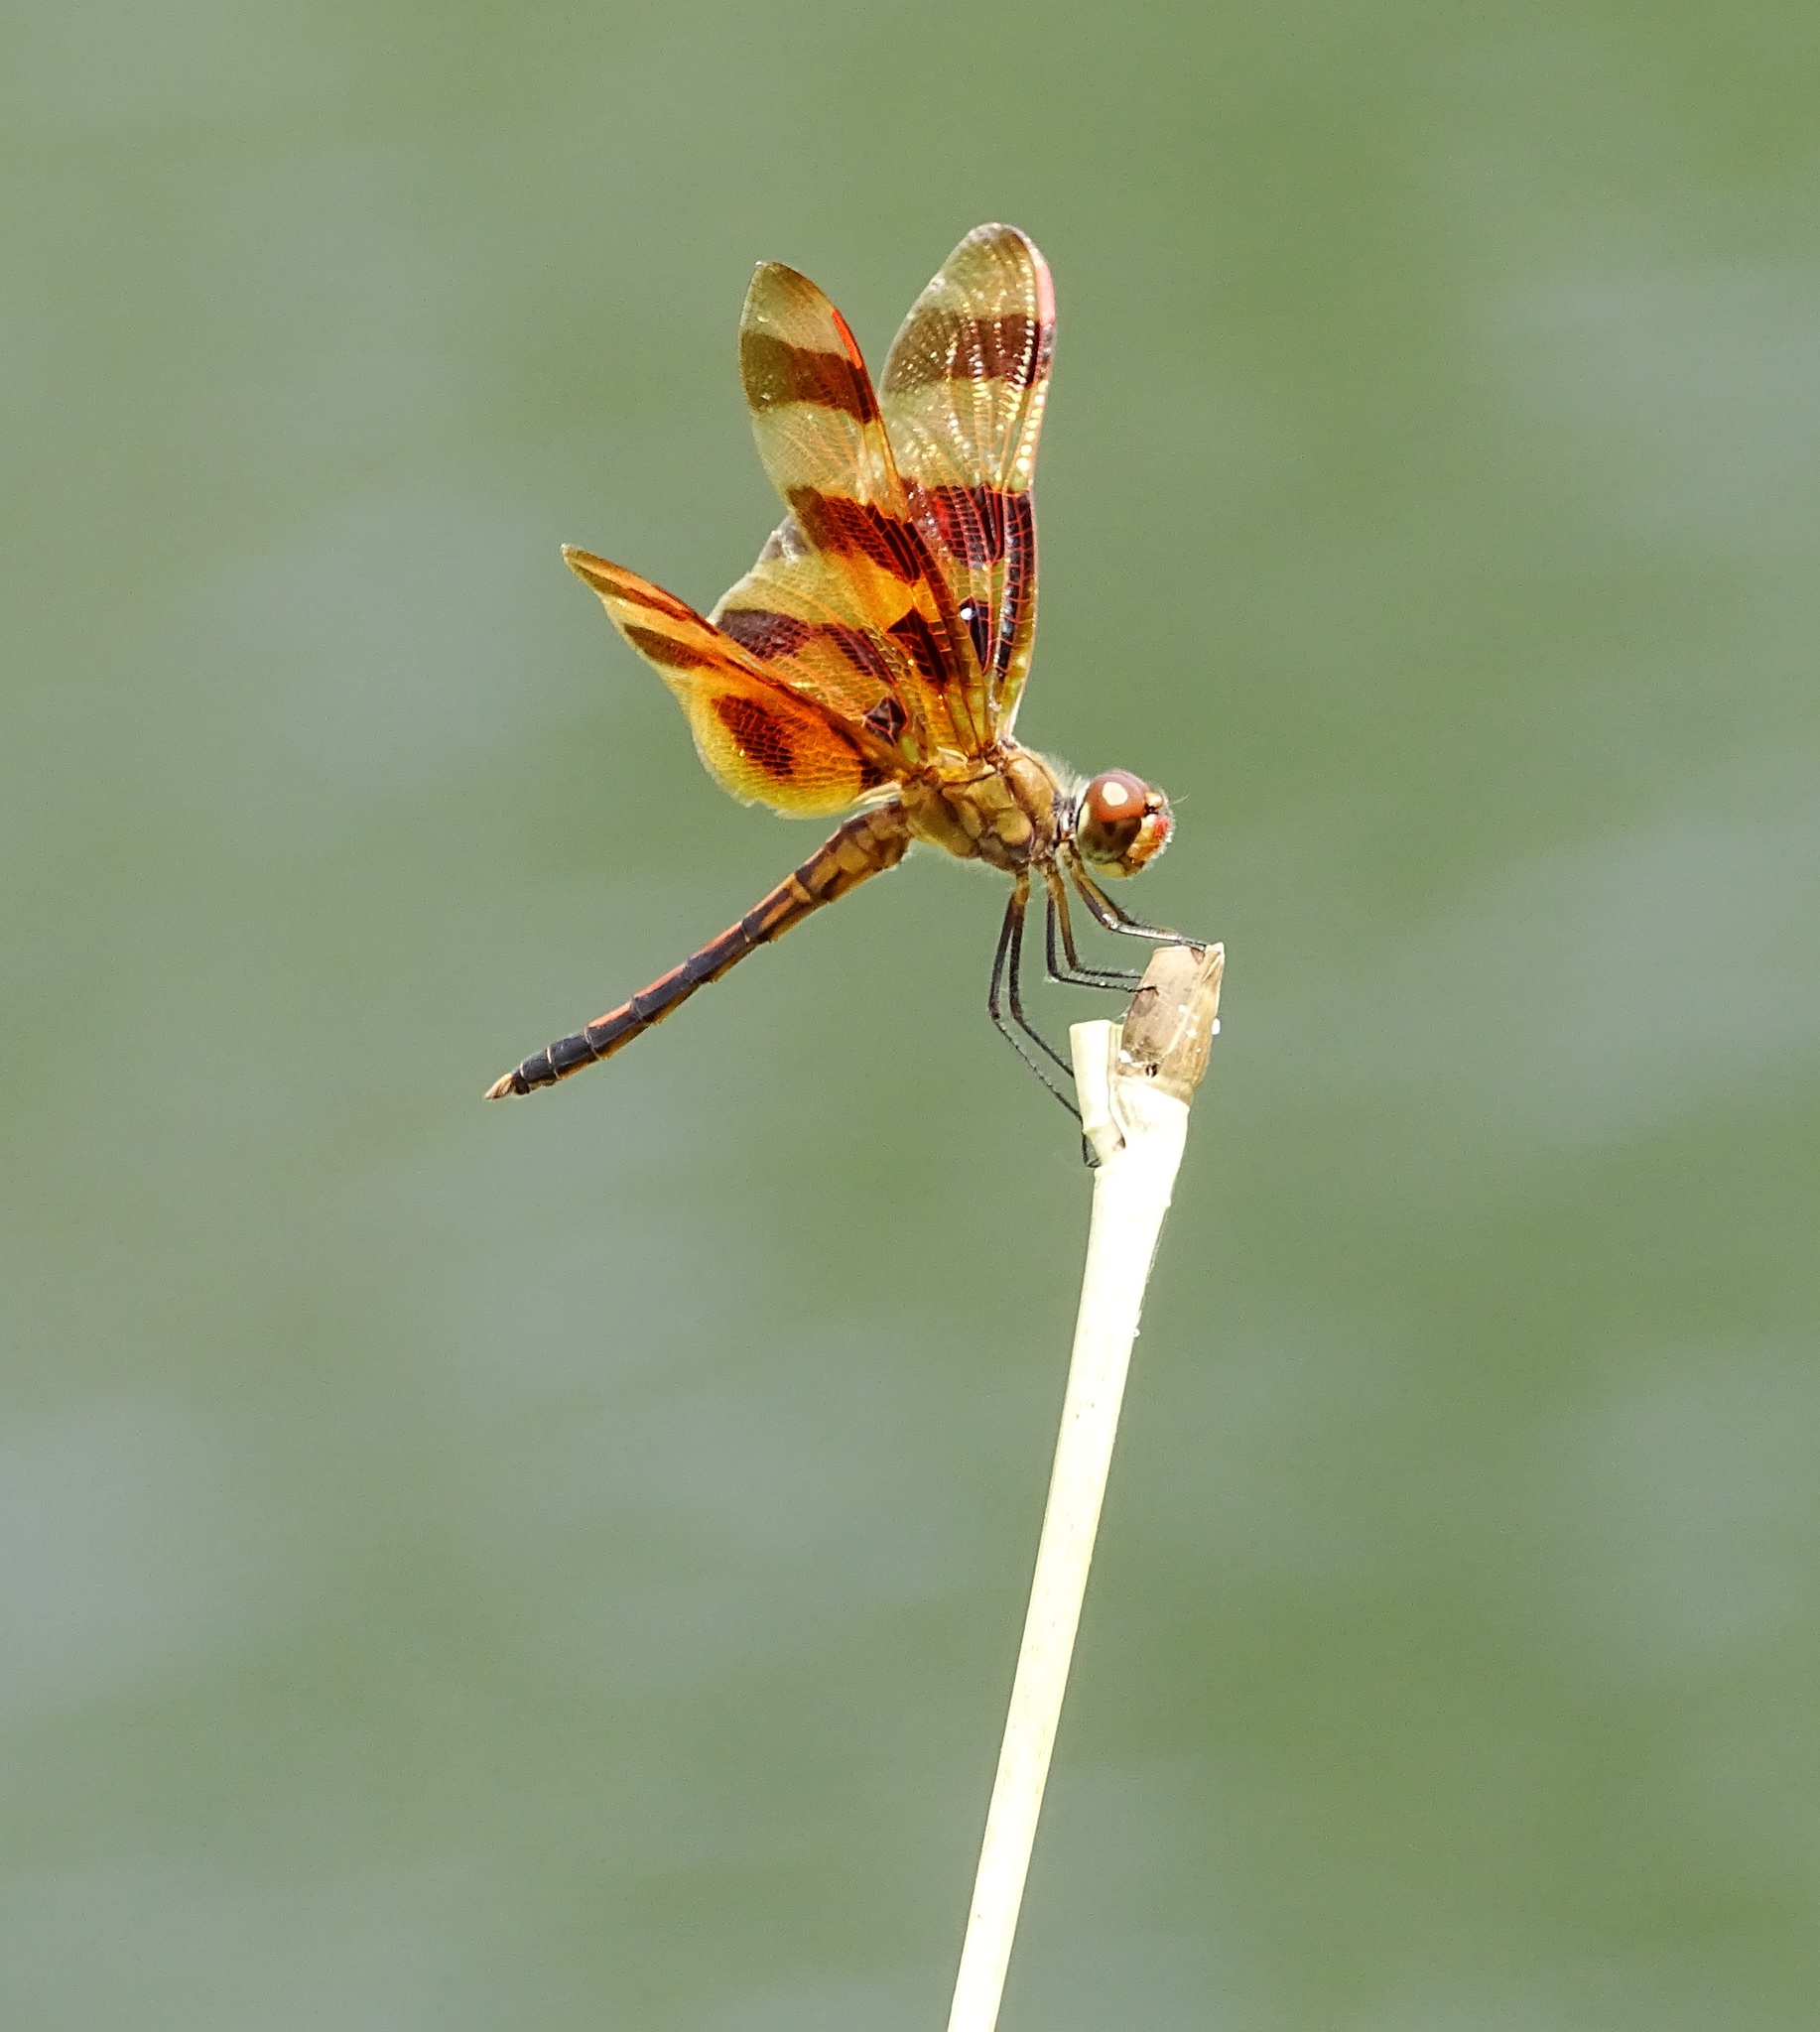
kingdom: Animalia
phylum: Arthropoda
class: Insecta
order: Odonata
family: Libellulidae
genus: Celithemis
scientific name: Celithemis eponina
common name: Halloween pennant
